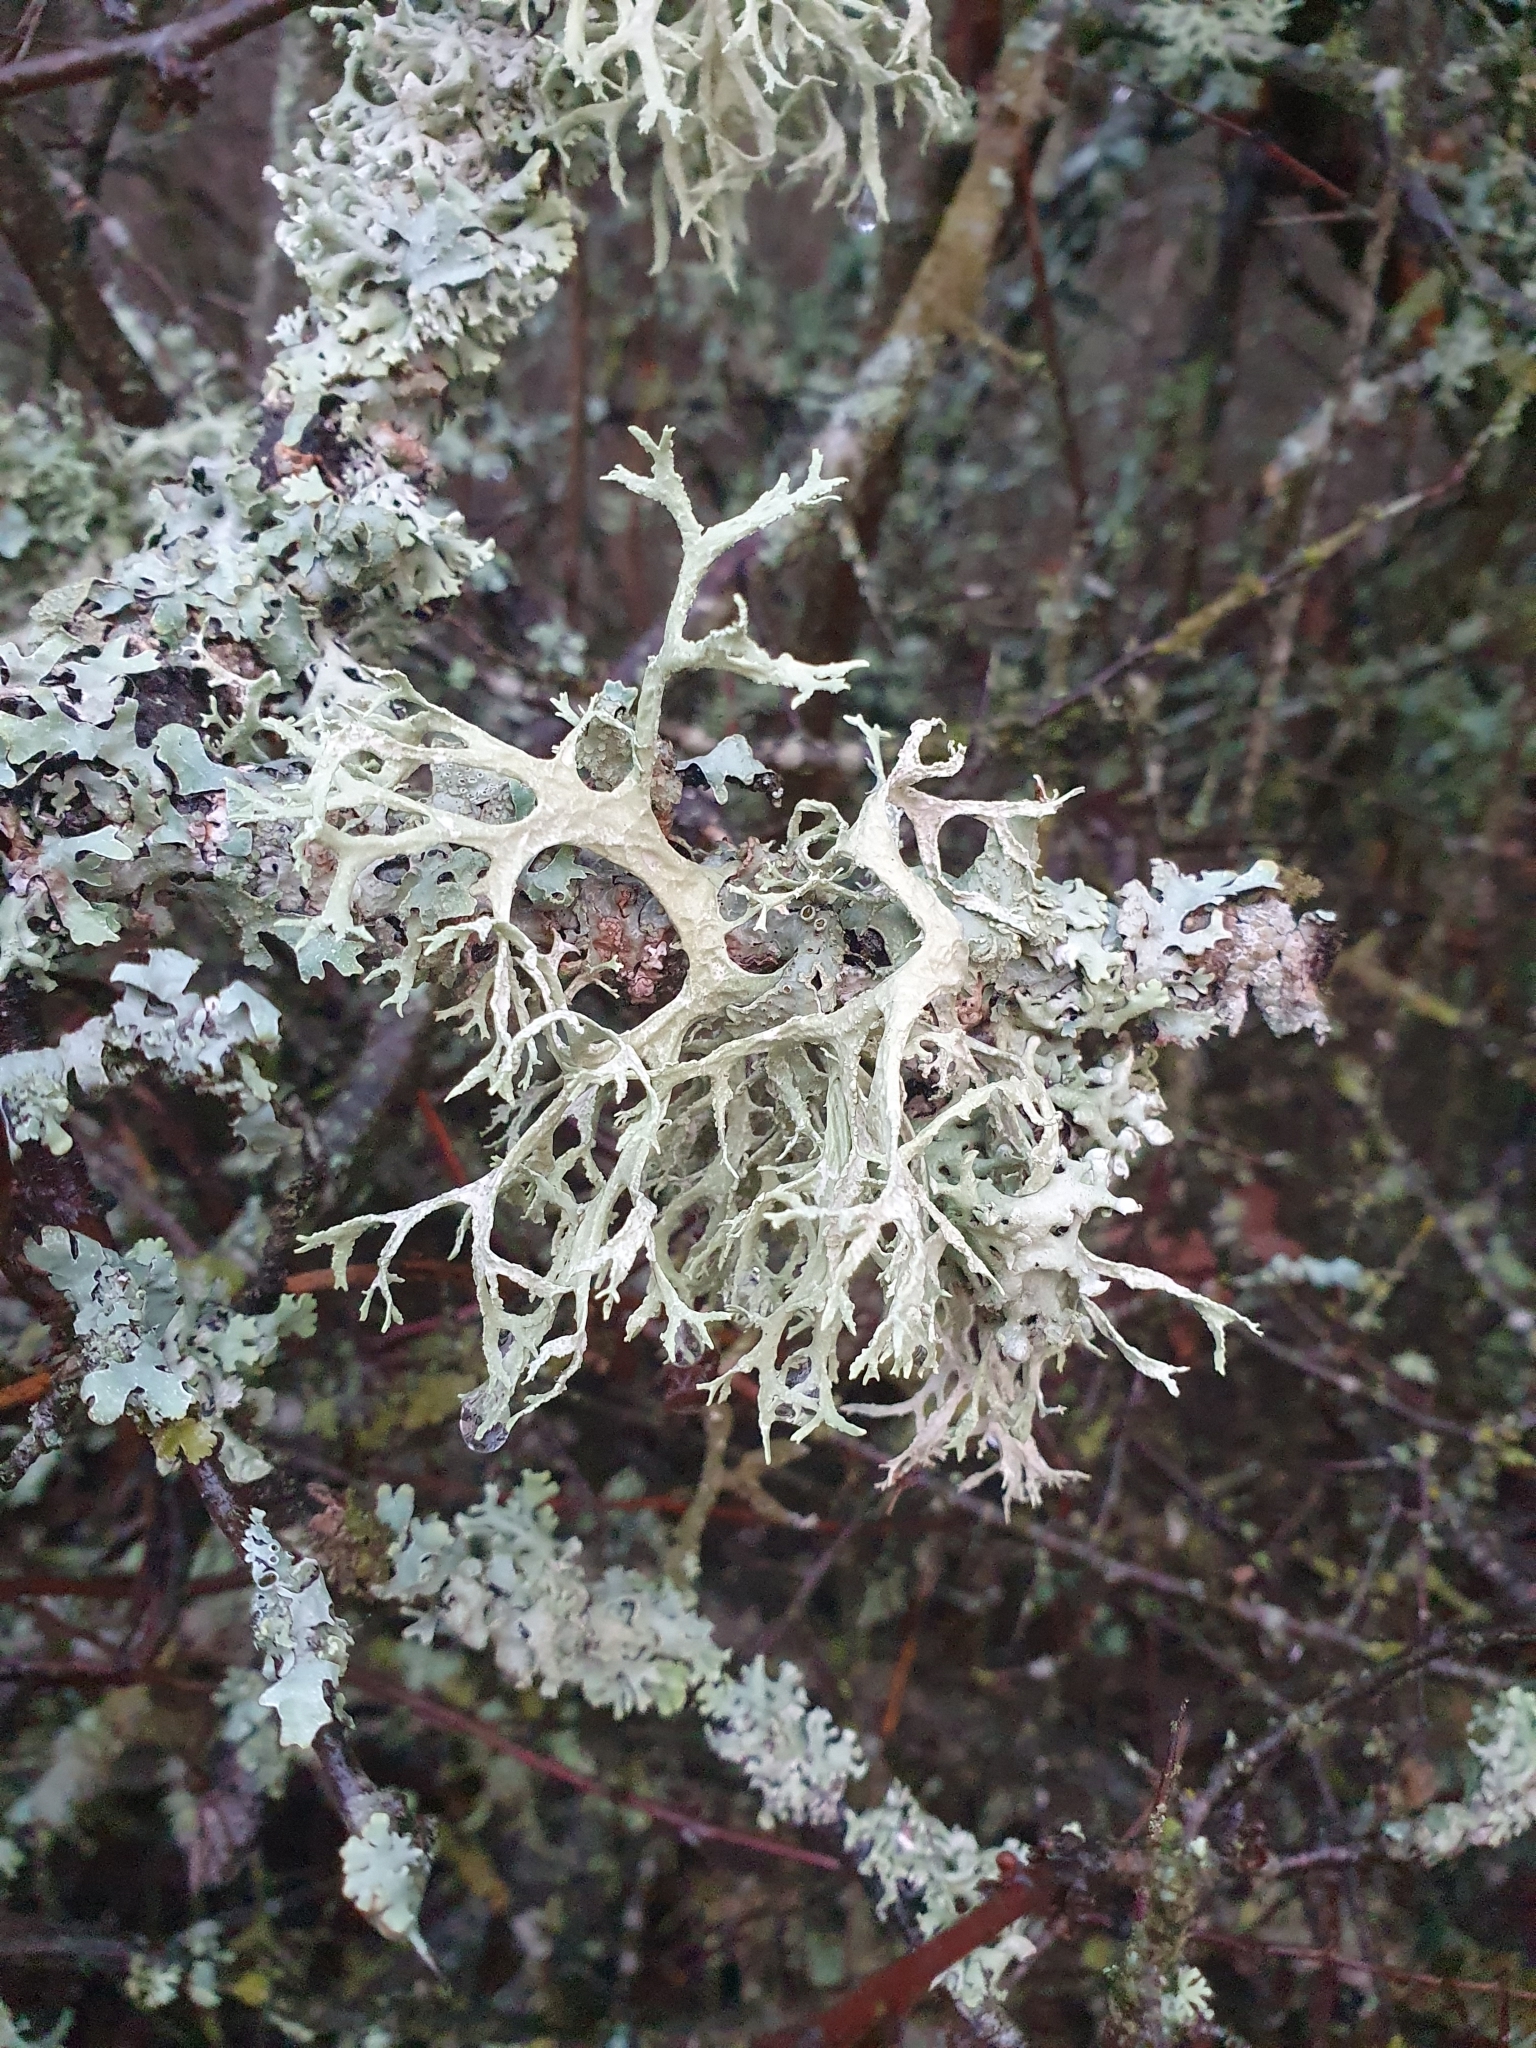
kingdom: Fungi
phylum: Ascomycota
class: Lecanoromycetes
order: Lecanorales
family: Parmeliaceae
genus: Evernia
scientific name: Evernia prunastri
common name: Oak moss
